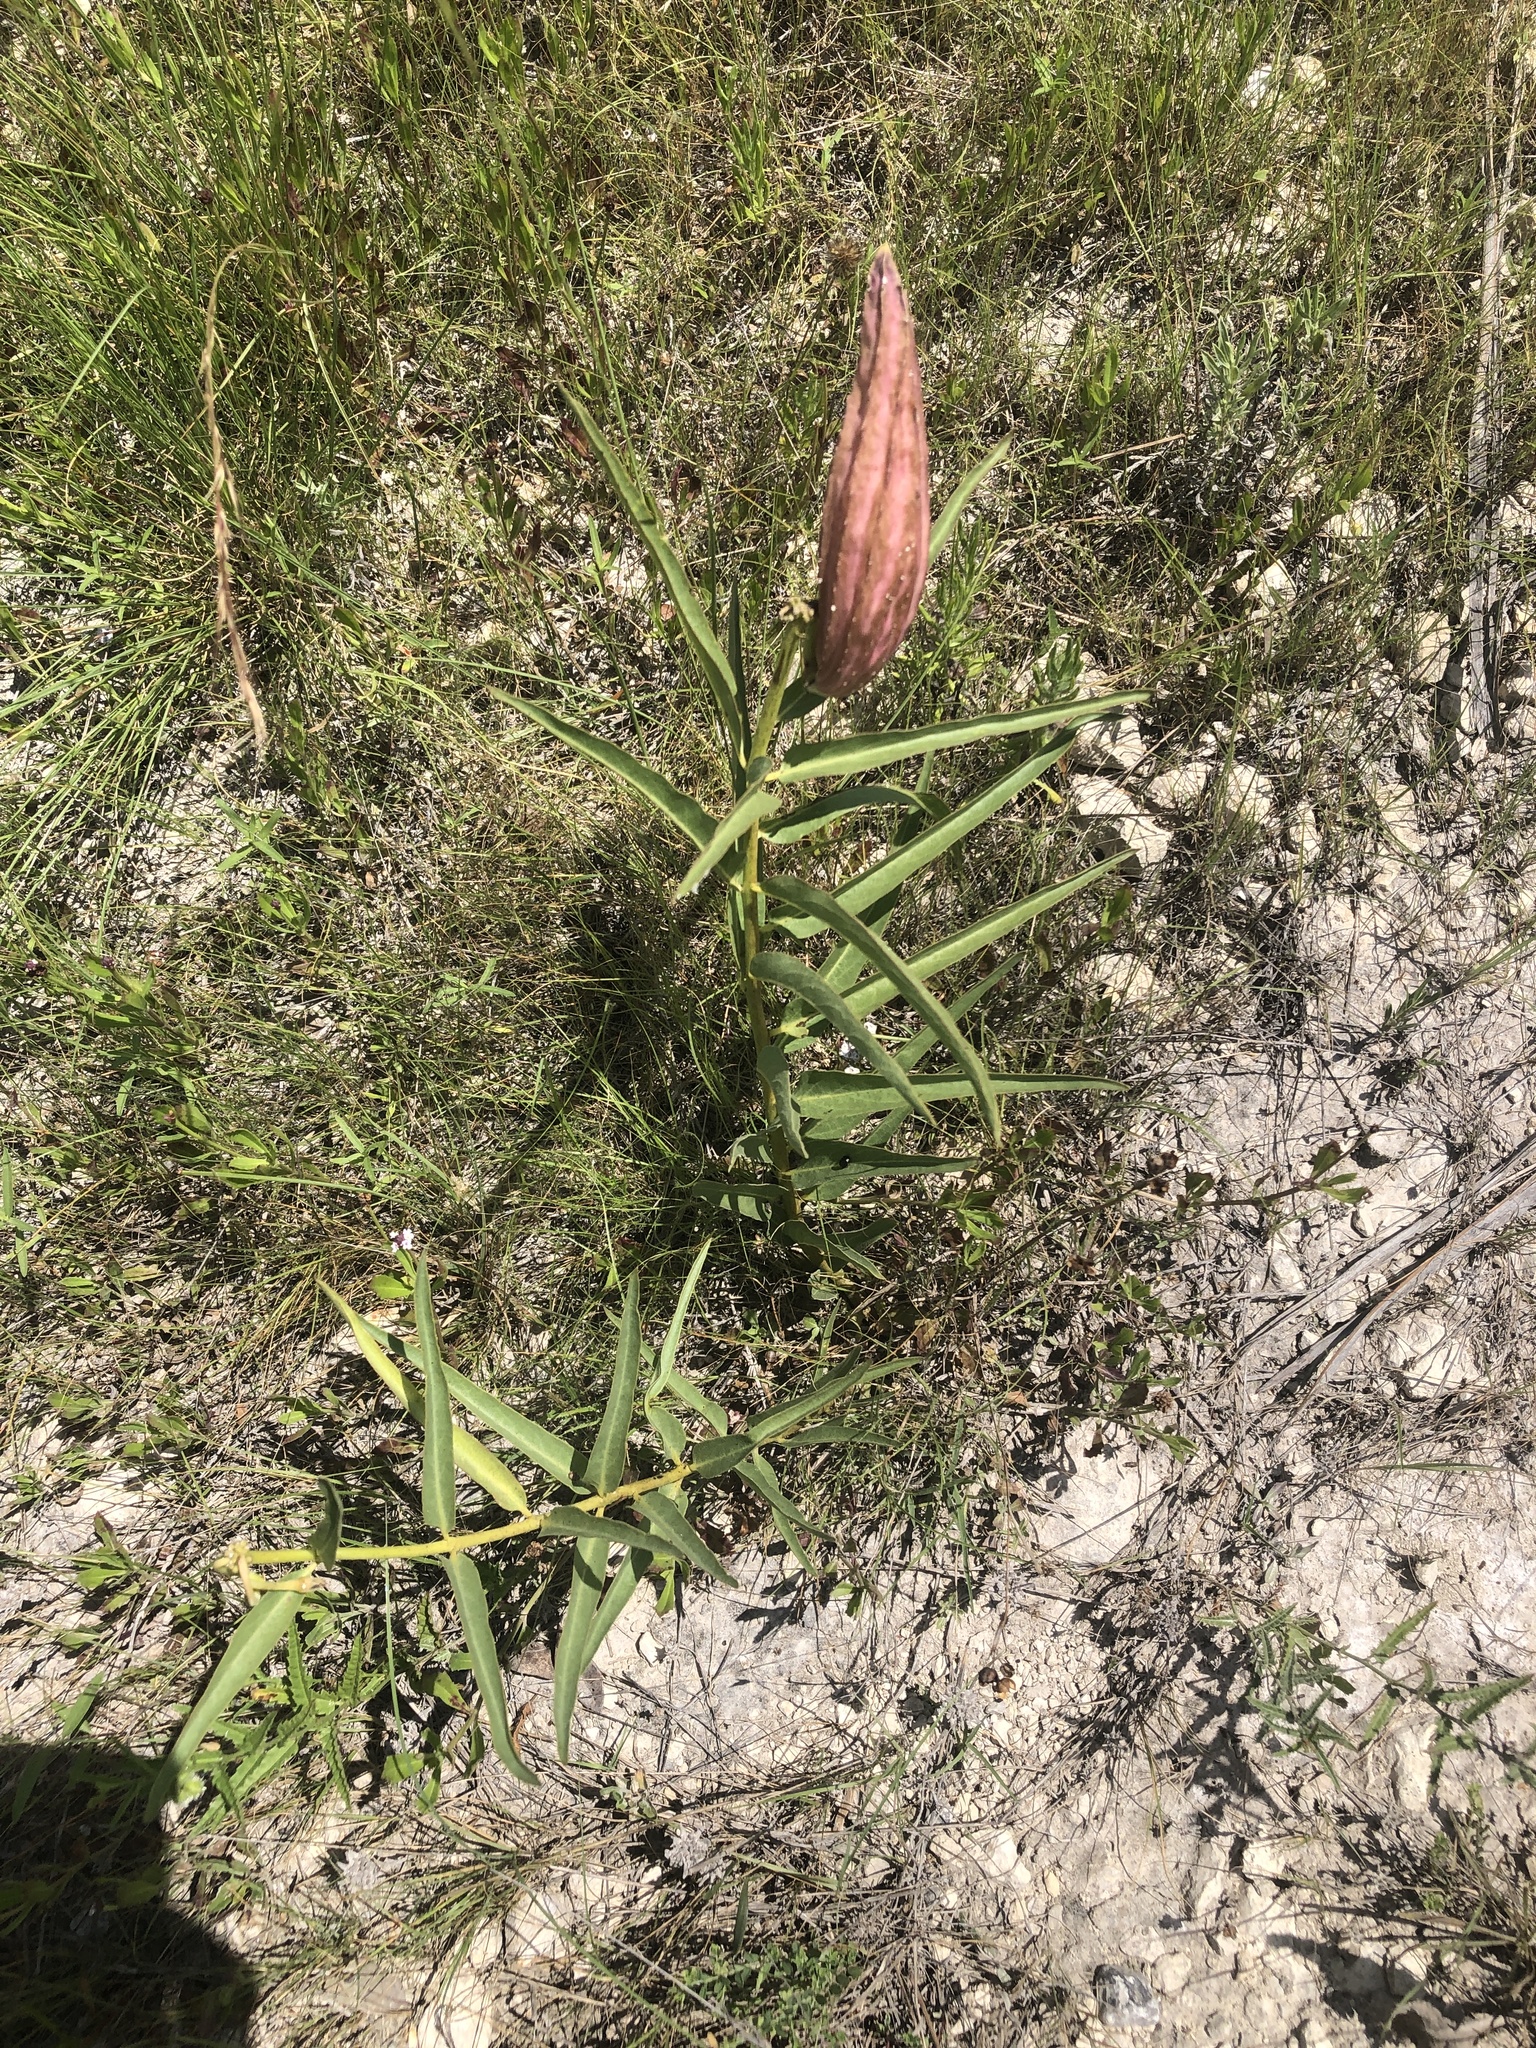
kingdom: Plantae
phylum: Tracheophyta
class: Magnoliopsida
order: Gentianales
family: Apocynaceae
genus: Asclepias
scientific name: Asclepias asperula
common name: Antelope horns
